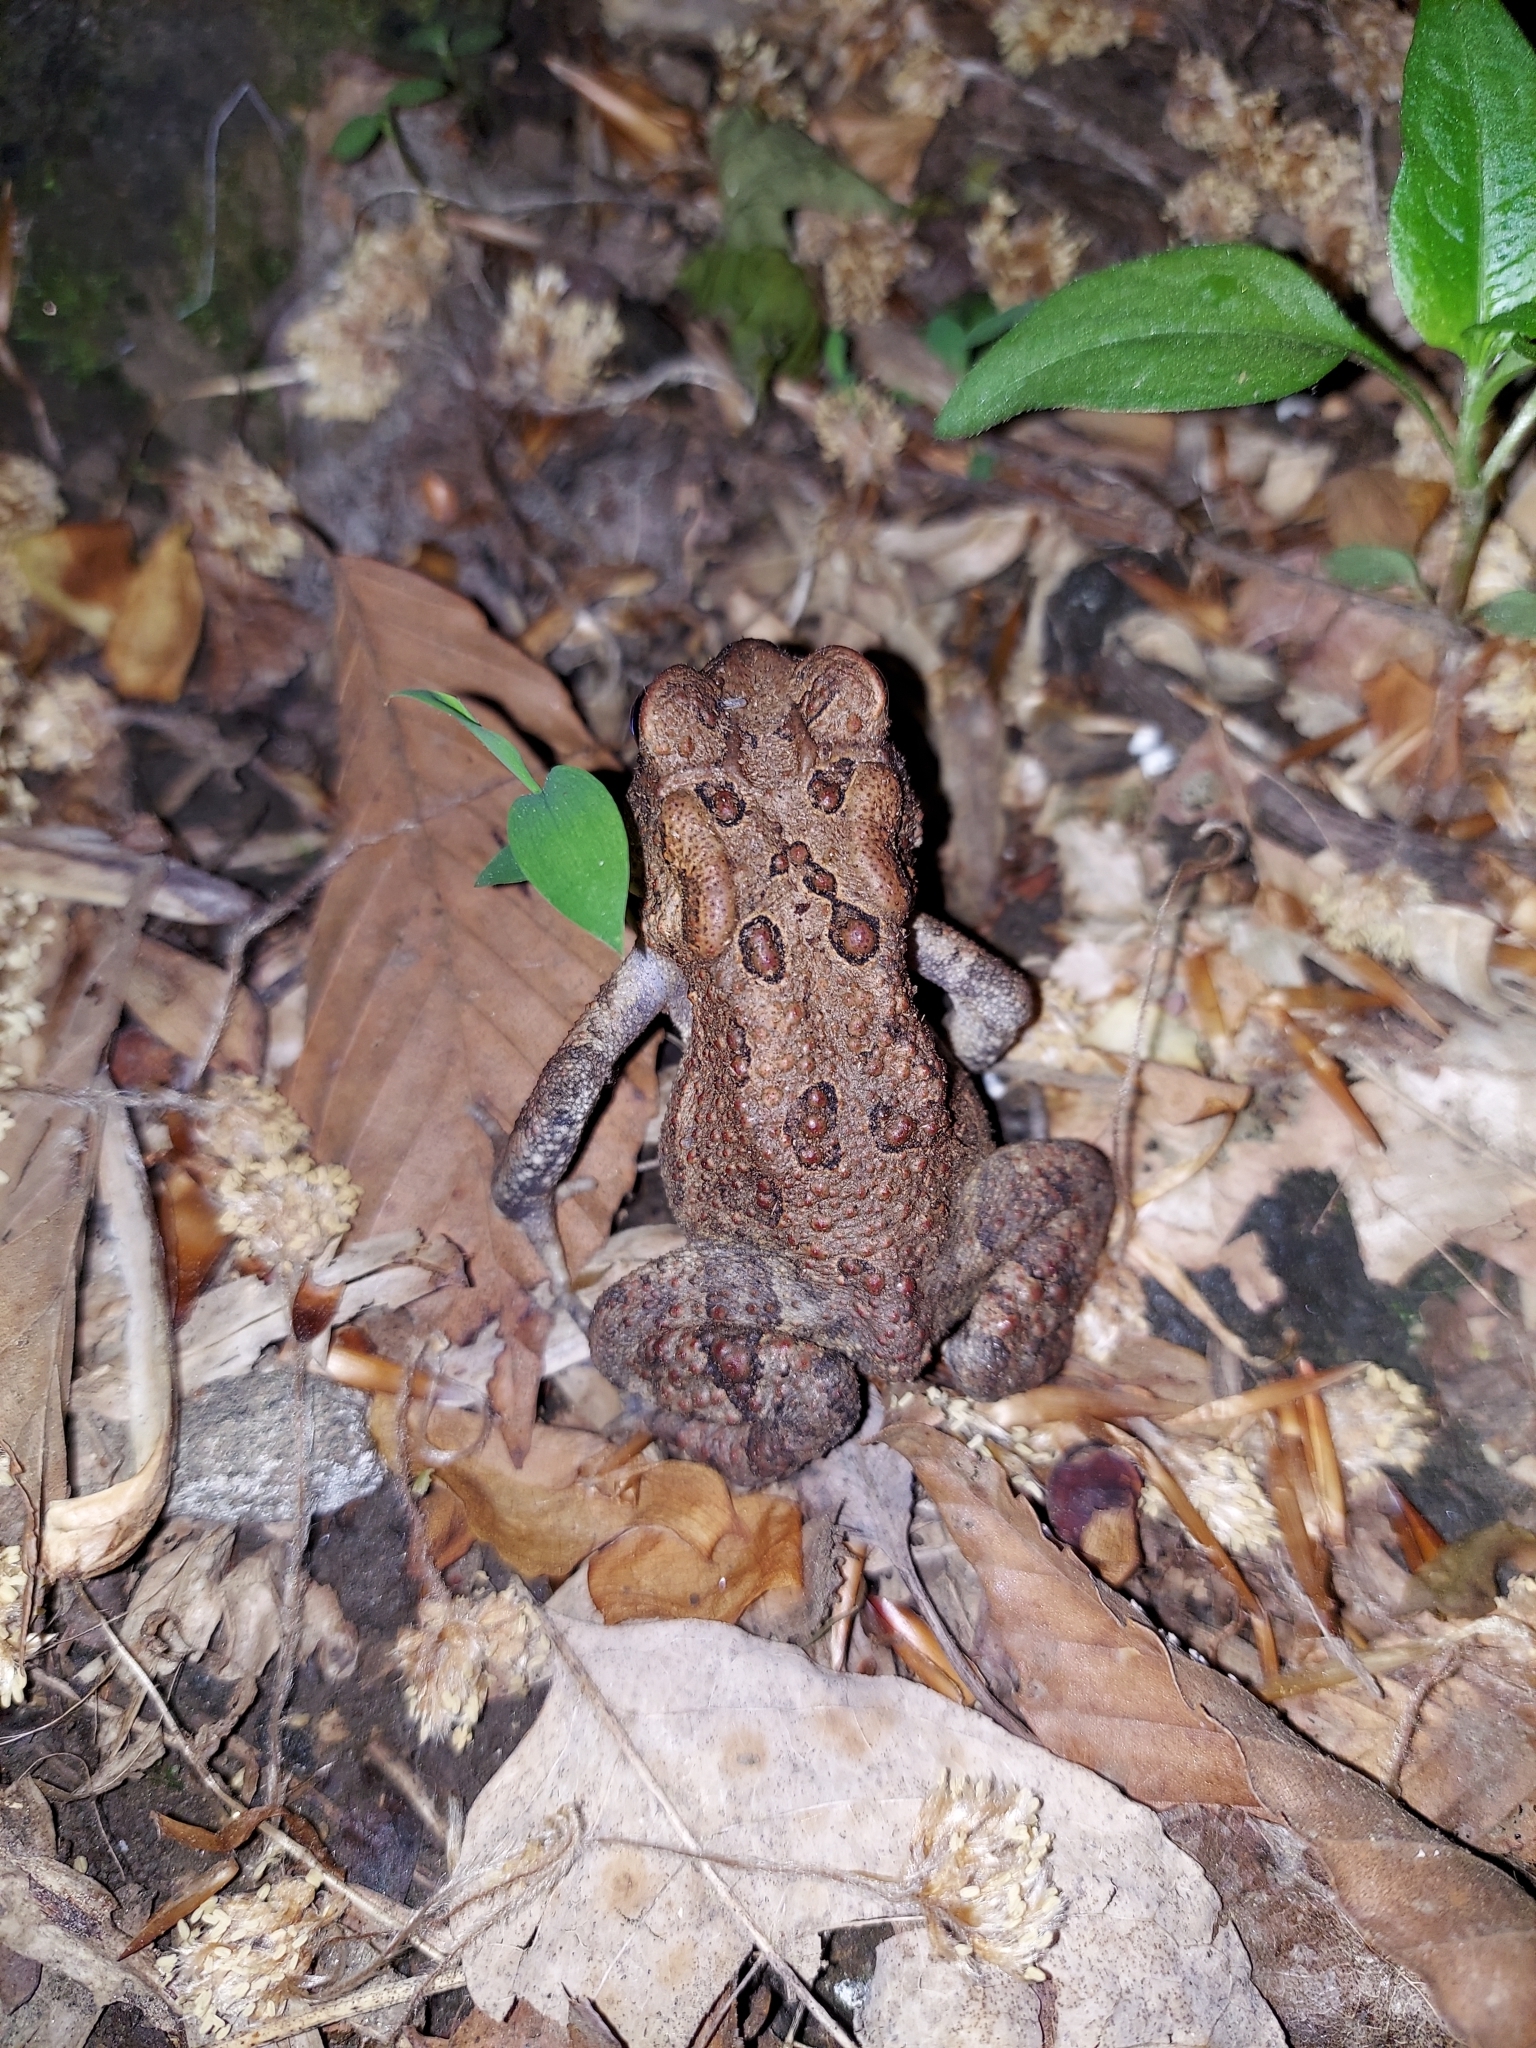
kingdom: Animalia
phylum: Chordata
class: Amphibia
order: Anura
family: Bufonidae
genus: Anaxyrus
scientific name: Anaxyrus americanus
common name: American toad
